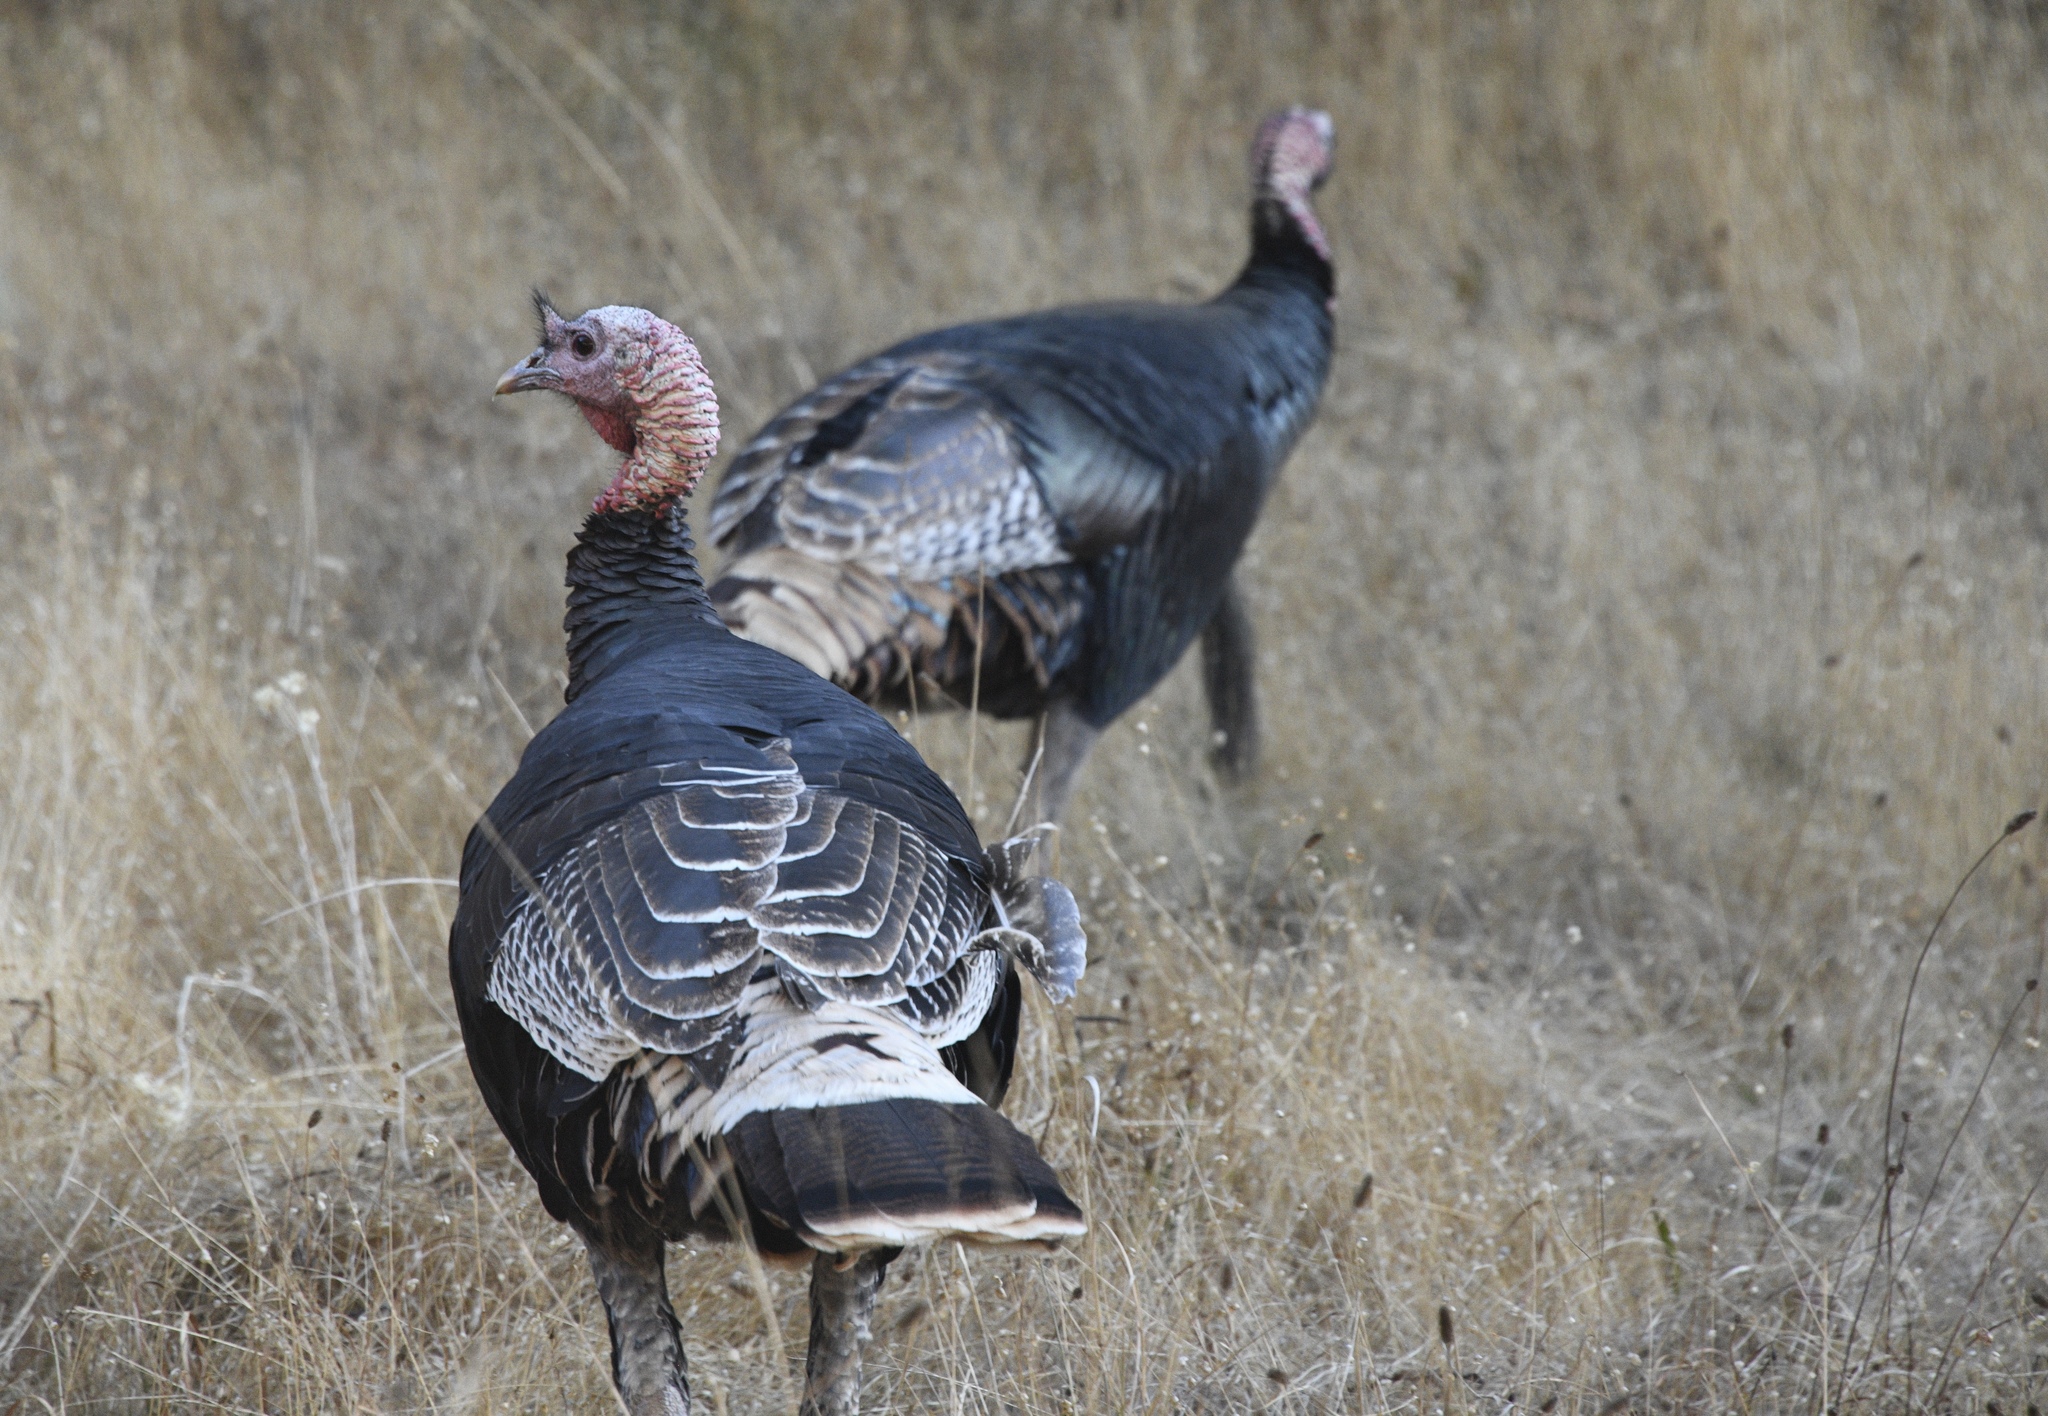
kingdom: Animalia
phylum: Chordata
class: Aves
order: Galliformes
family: Phasianidae
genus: Meleagris
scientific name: Meleagris gallopavo
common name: Wild turkey
